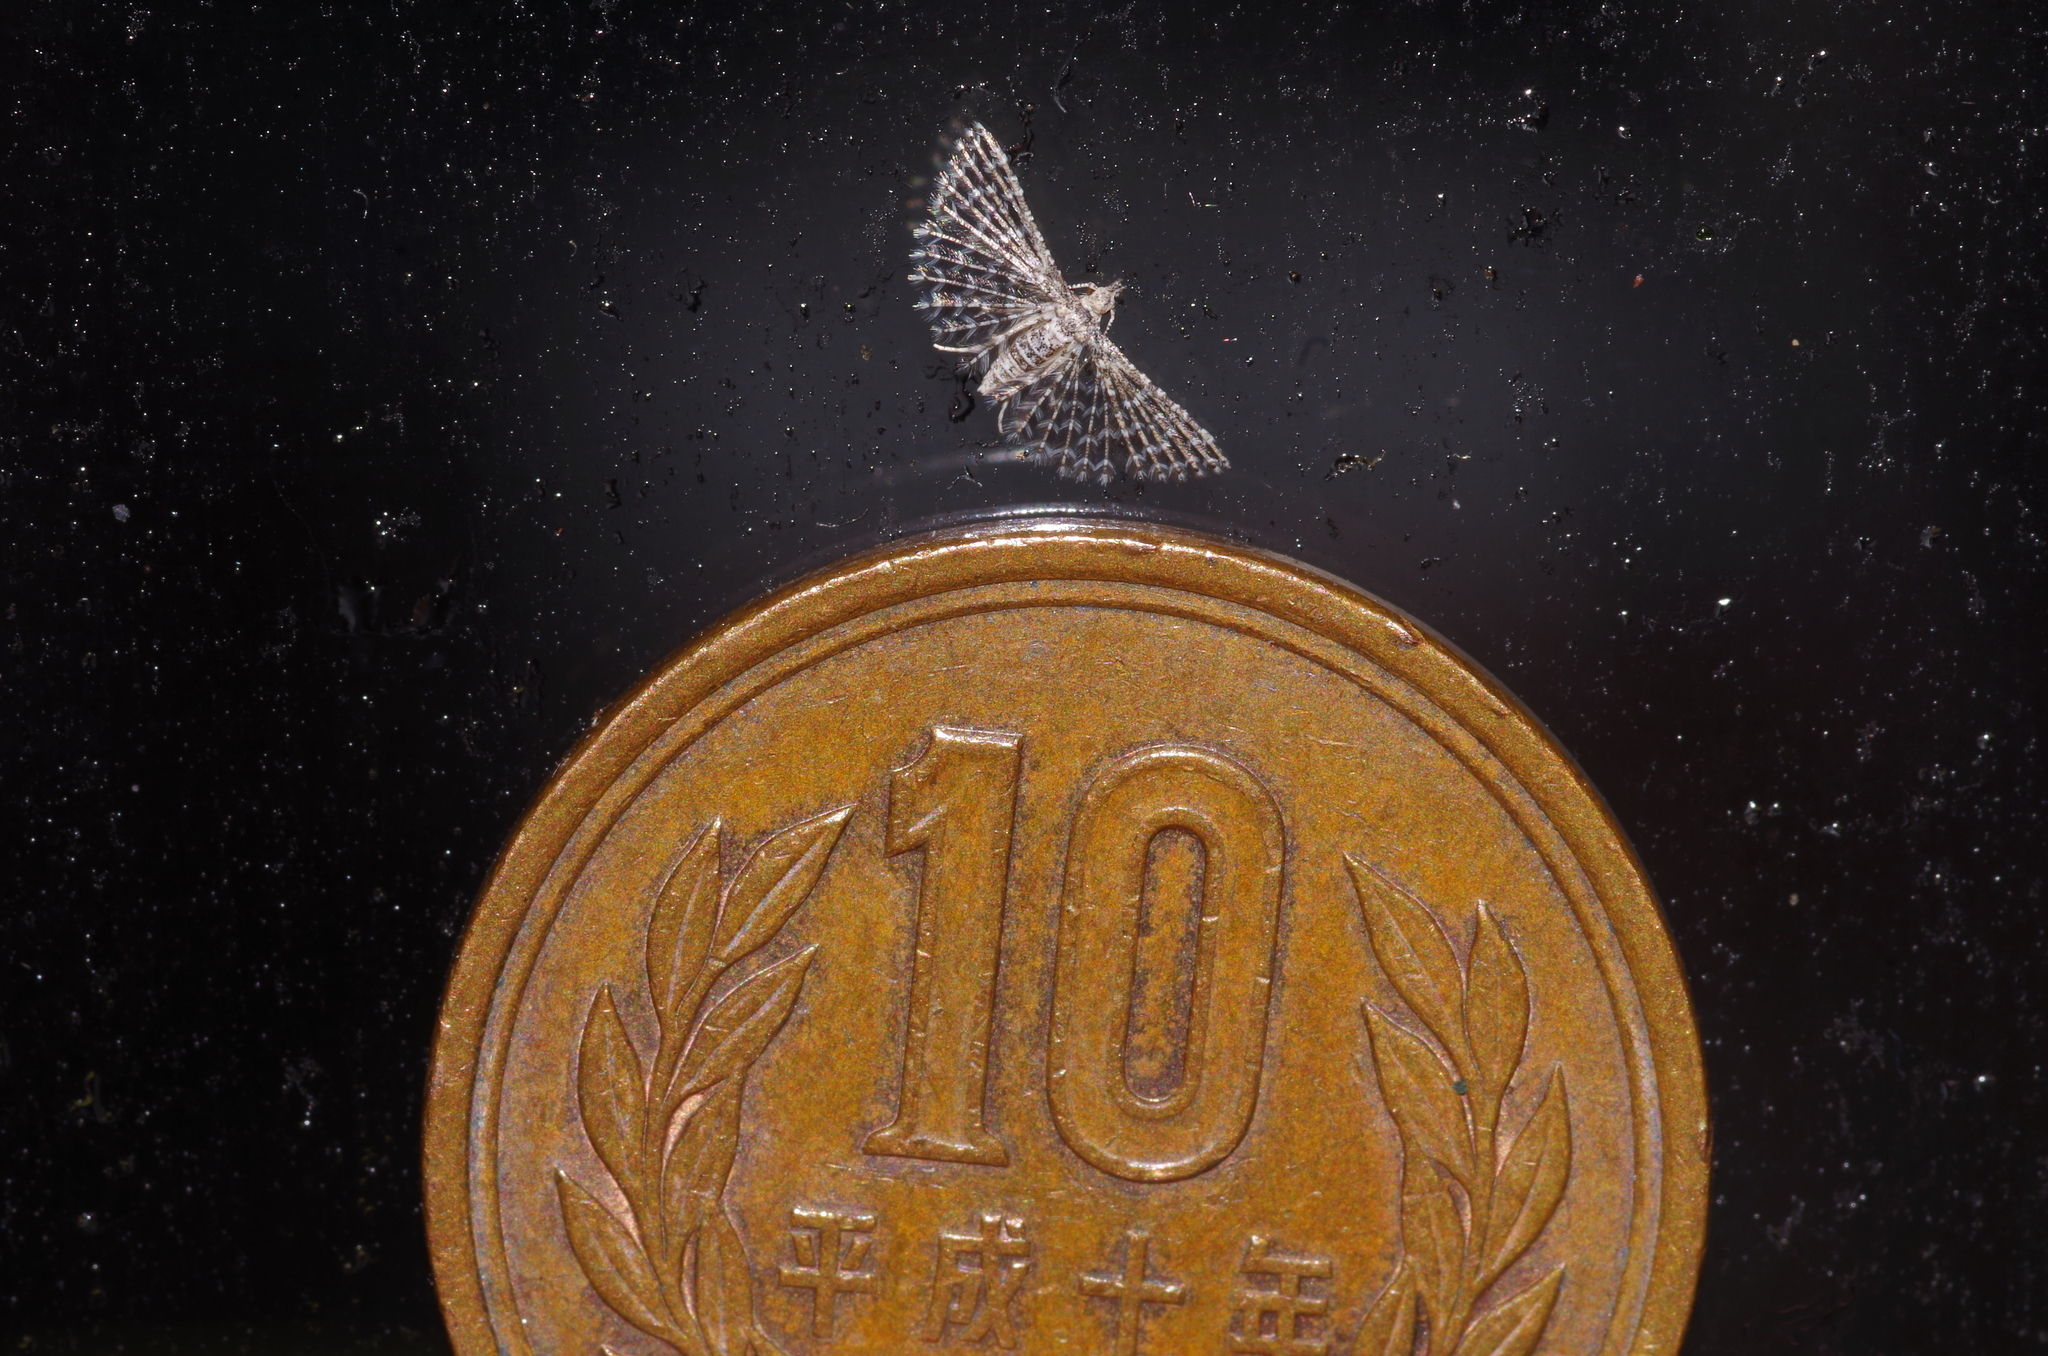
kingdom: Animalia
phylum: Arthropoda
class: Insecta
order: Lepidoptera
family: Alucitidae
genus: Alucita
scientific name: Alucita pusilla
